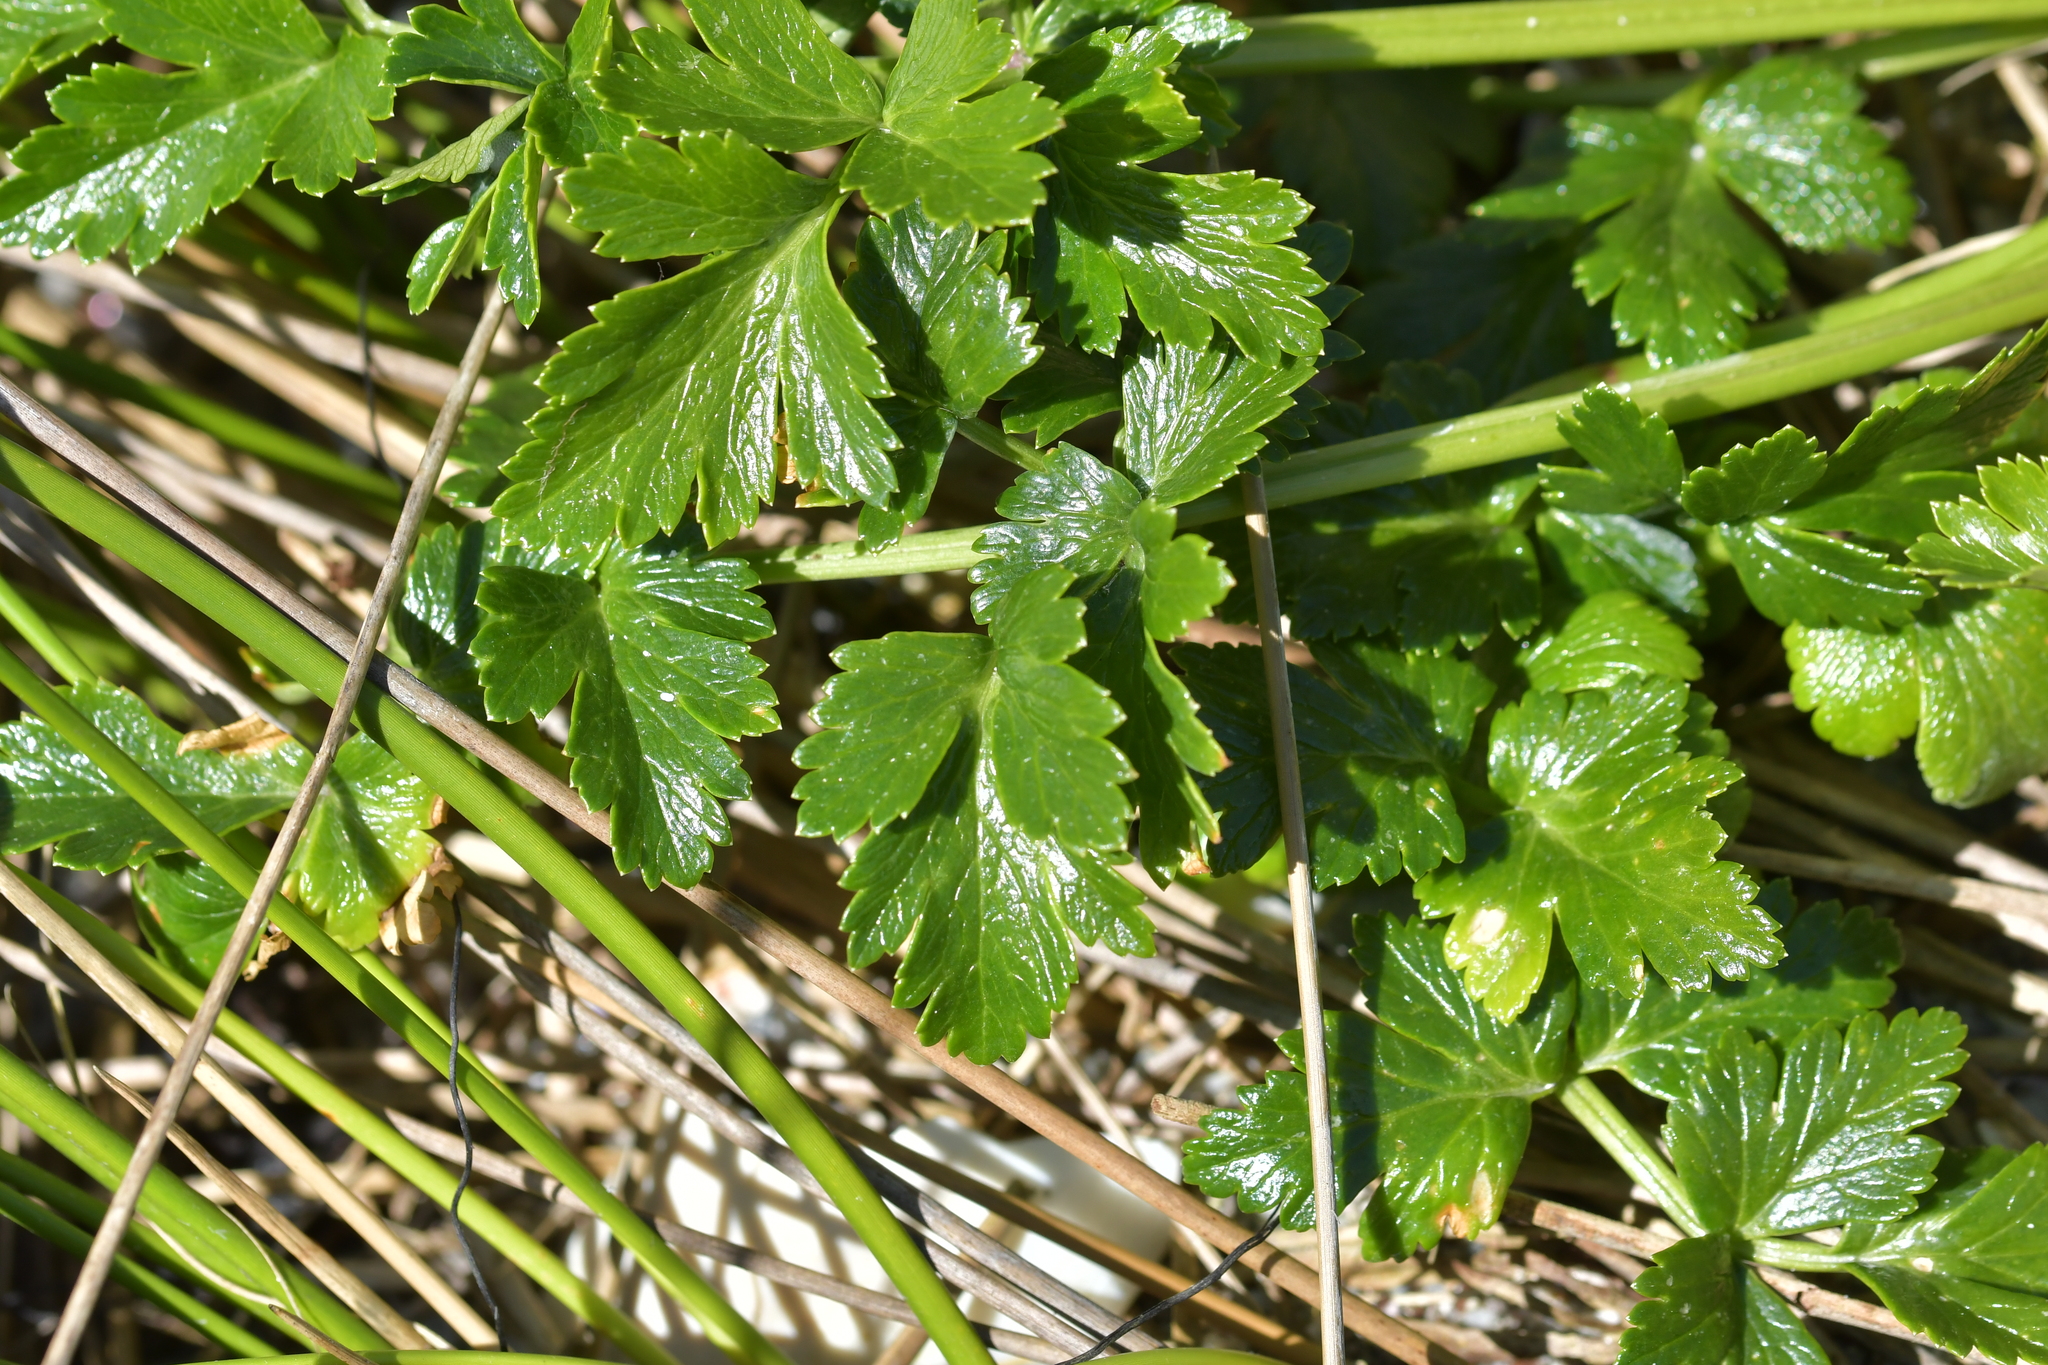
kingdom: Plantae
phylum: Tracheophyta
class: Magnoliopsida
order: Apiales
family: Apiaceae
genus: Apium
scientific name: Apium prostratum
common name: Prostrate marshwort
